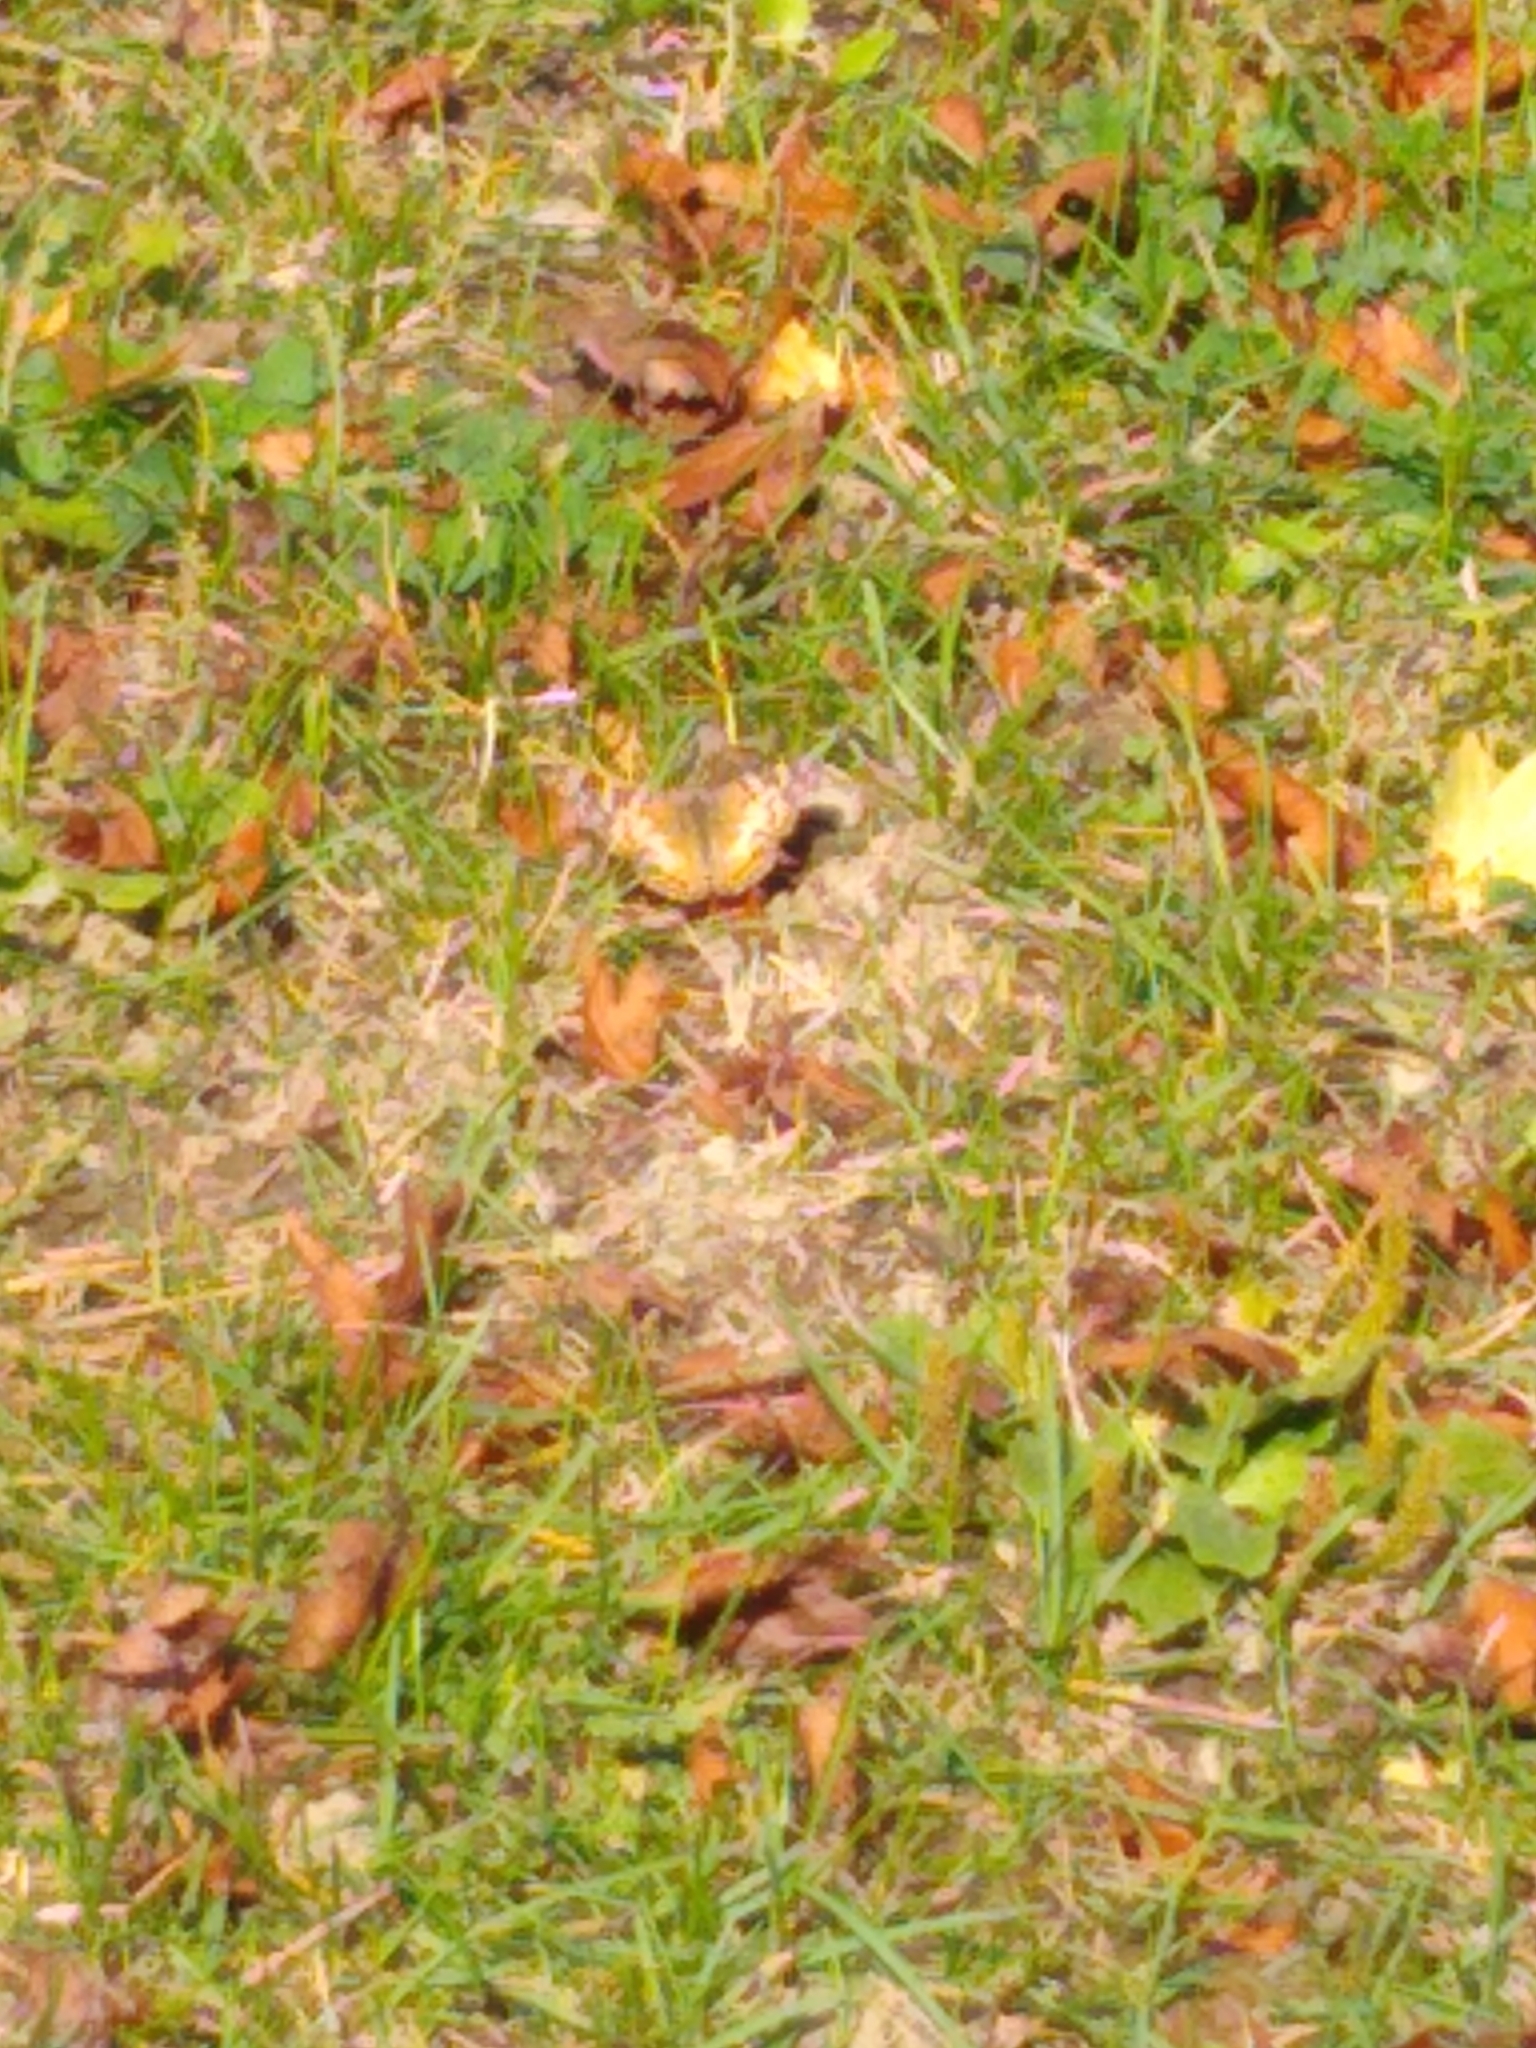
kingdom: Animalia
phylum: Arthropoda
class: Insecta
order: Lepidoptera
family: Nymphalidae
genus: Vanessa
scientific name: Vanessa virginiensis
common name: American lady
